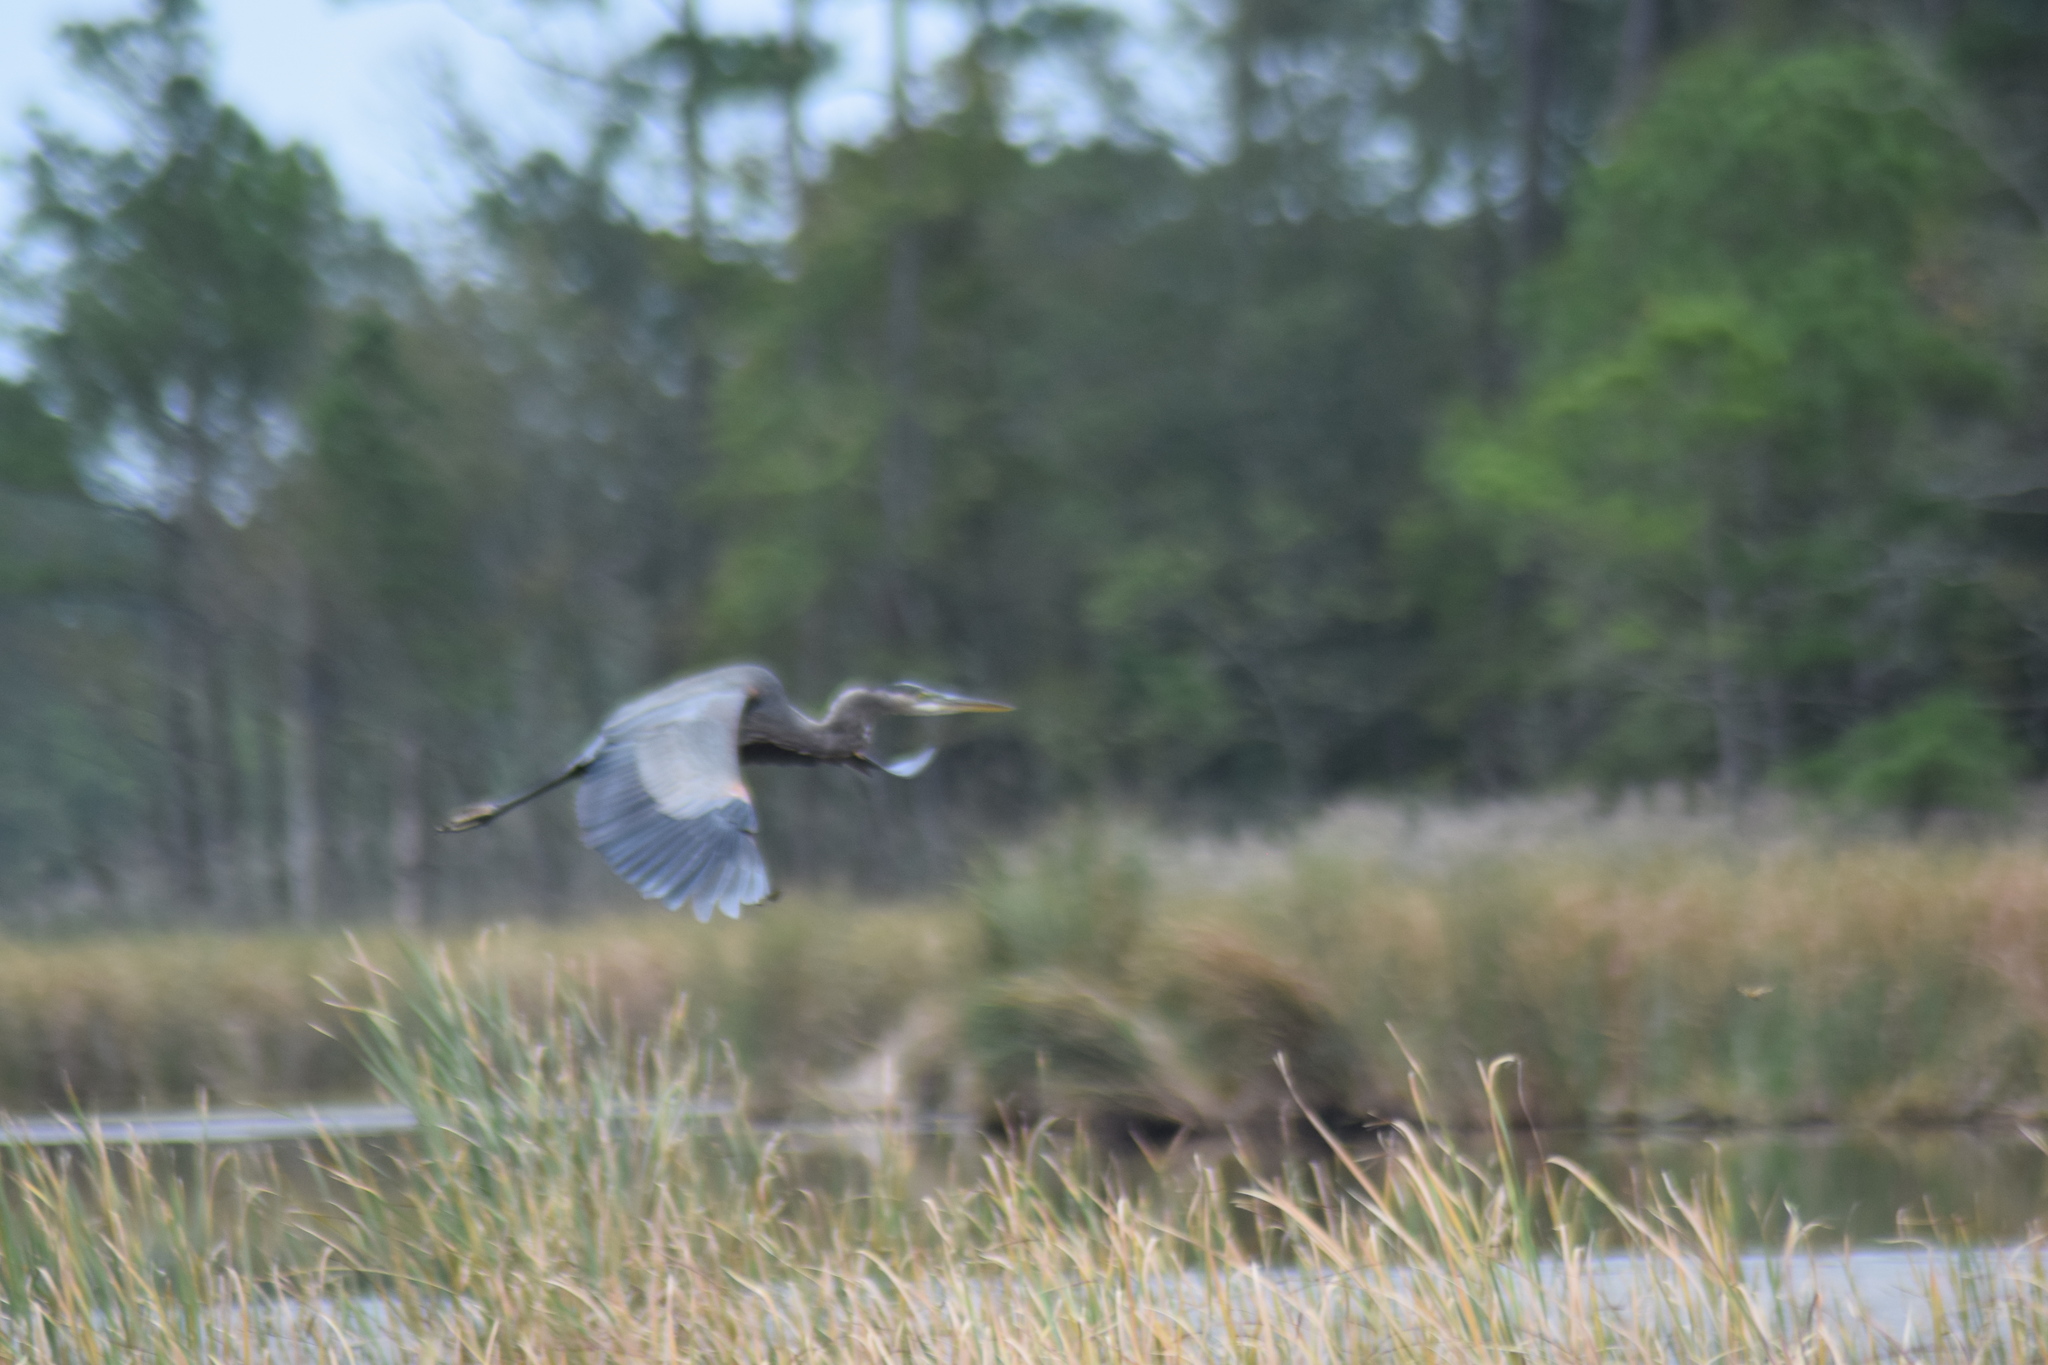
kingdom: Animalia
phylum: Chordata
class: Aves
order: Pelecaniformes
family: Ardeidae
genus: Ardea
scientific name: Ardea herodias
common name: Great blue heron
